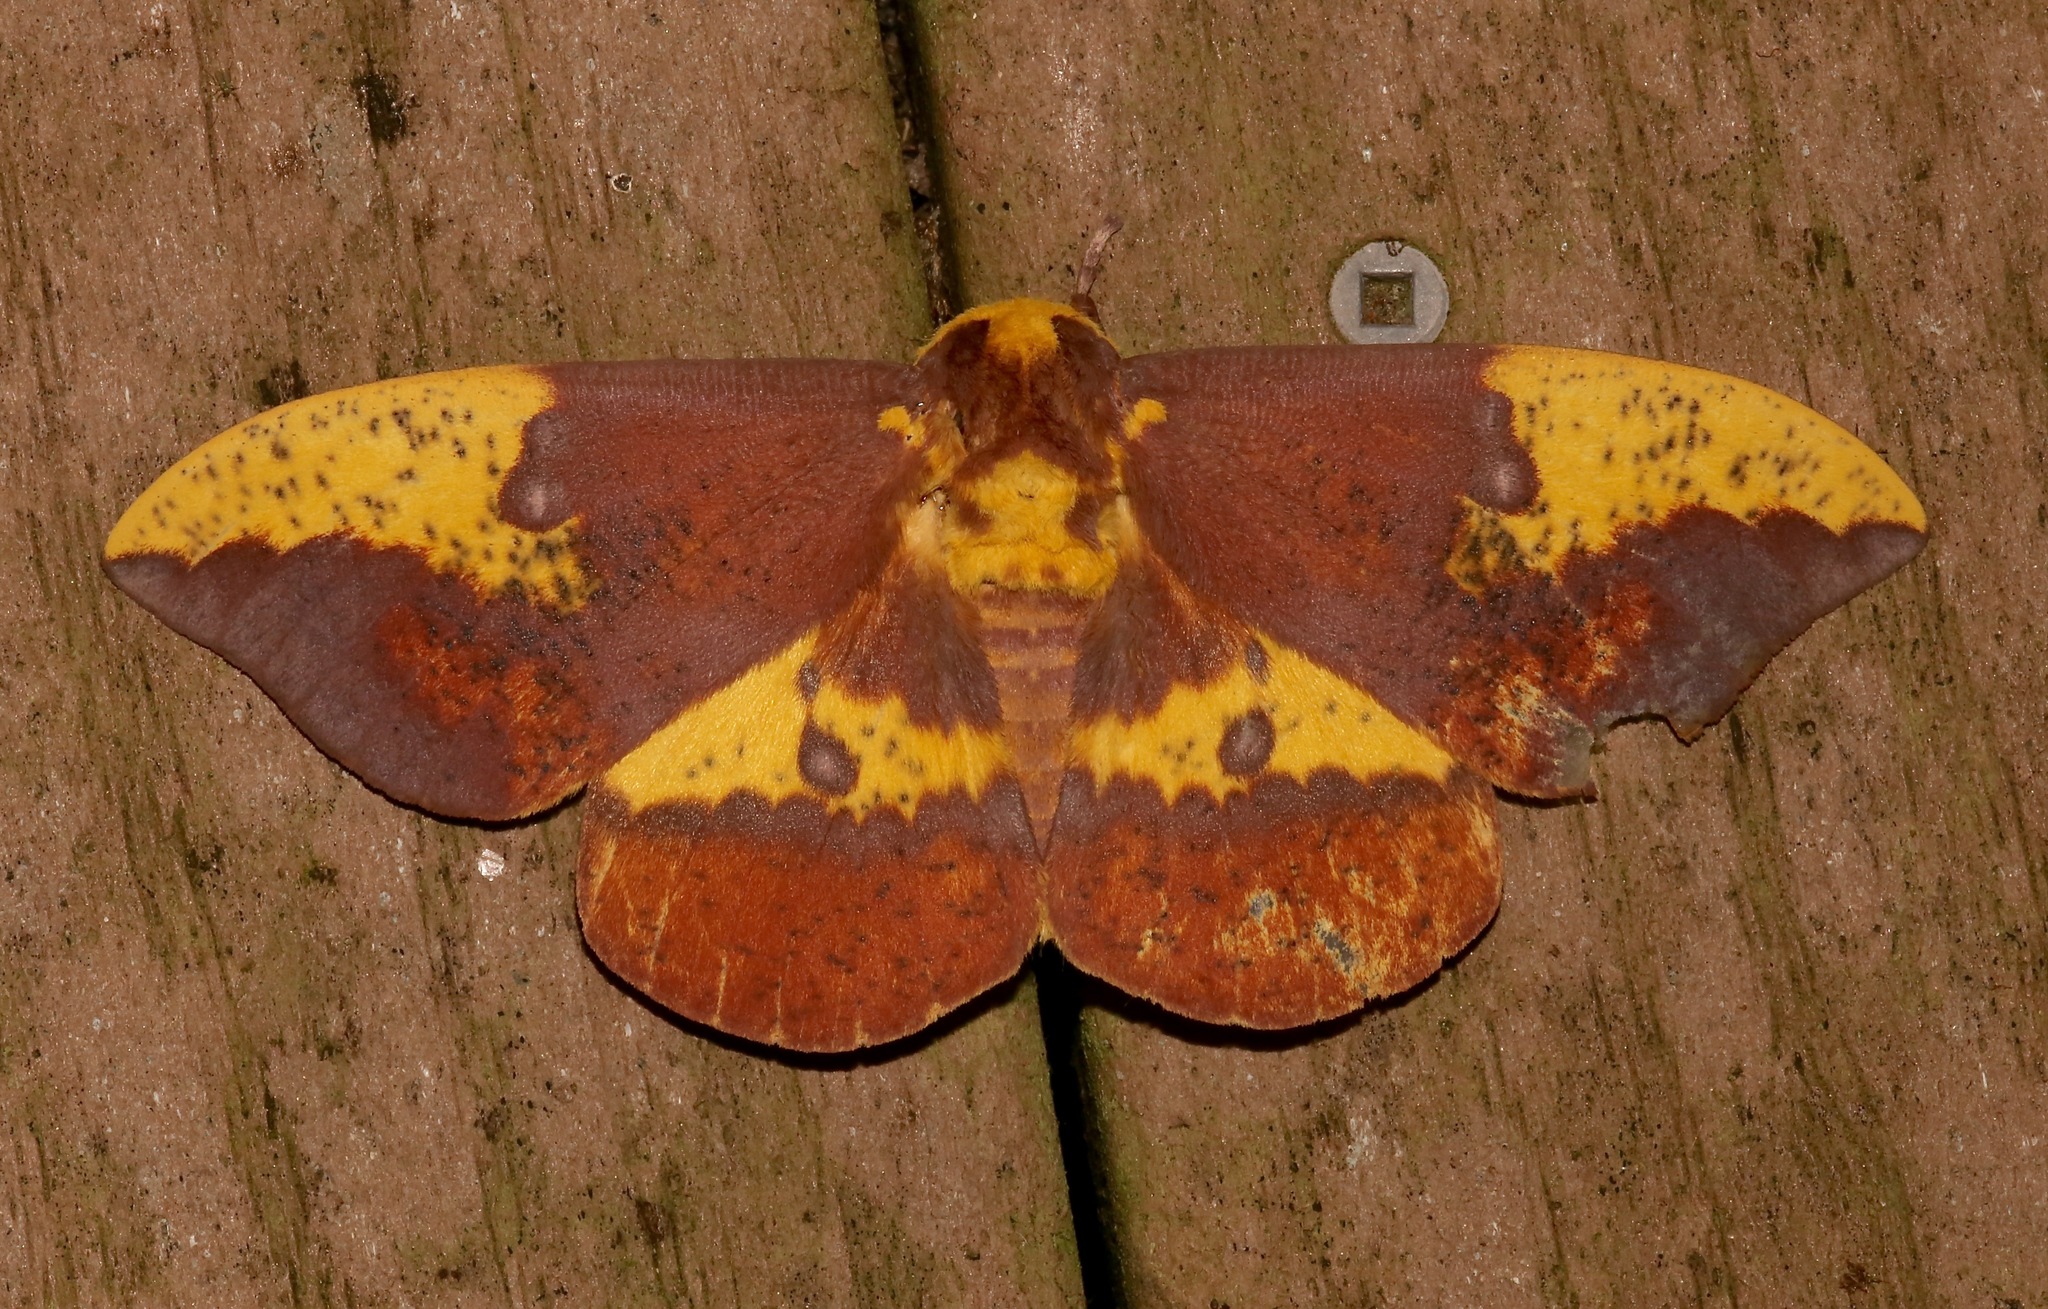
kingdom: Animalia
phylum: Arthropoda
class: Insecta
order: Lepidoptera
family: Saturniidae
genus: Eacles
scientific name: Eacles imperialis
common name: Imperial moth
